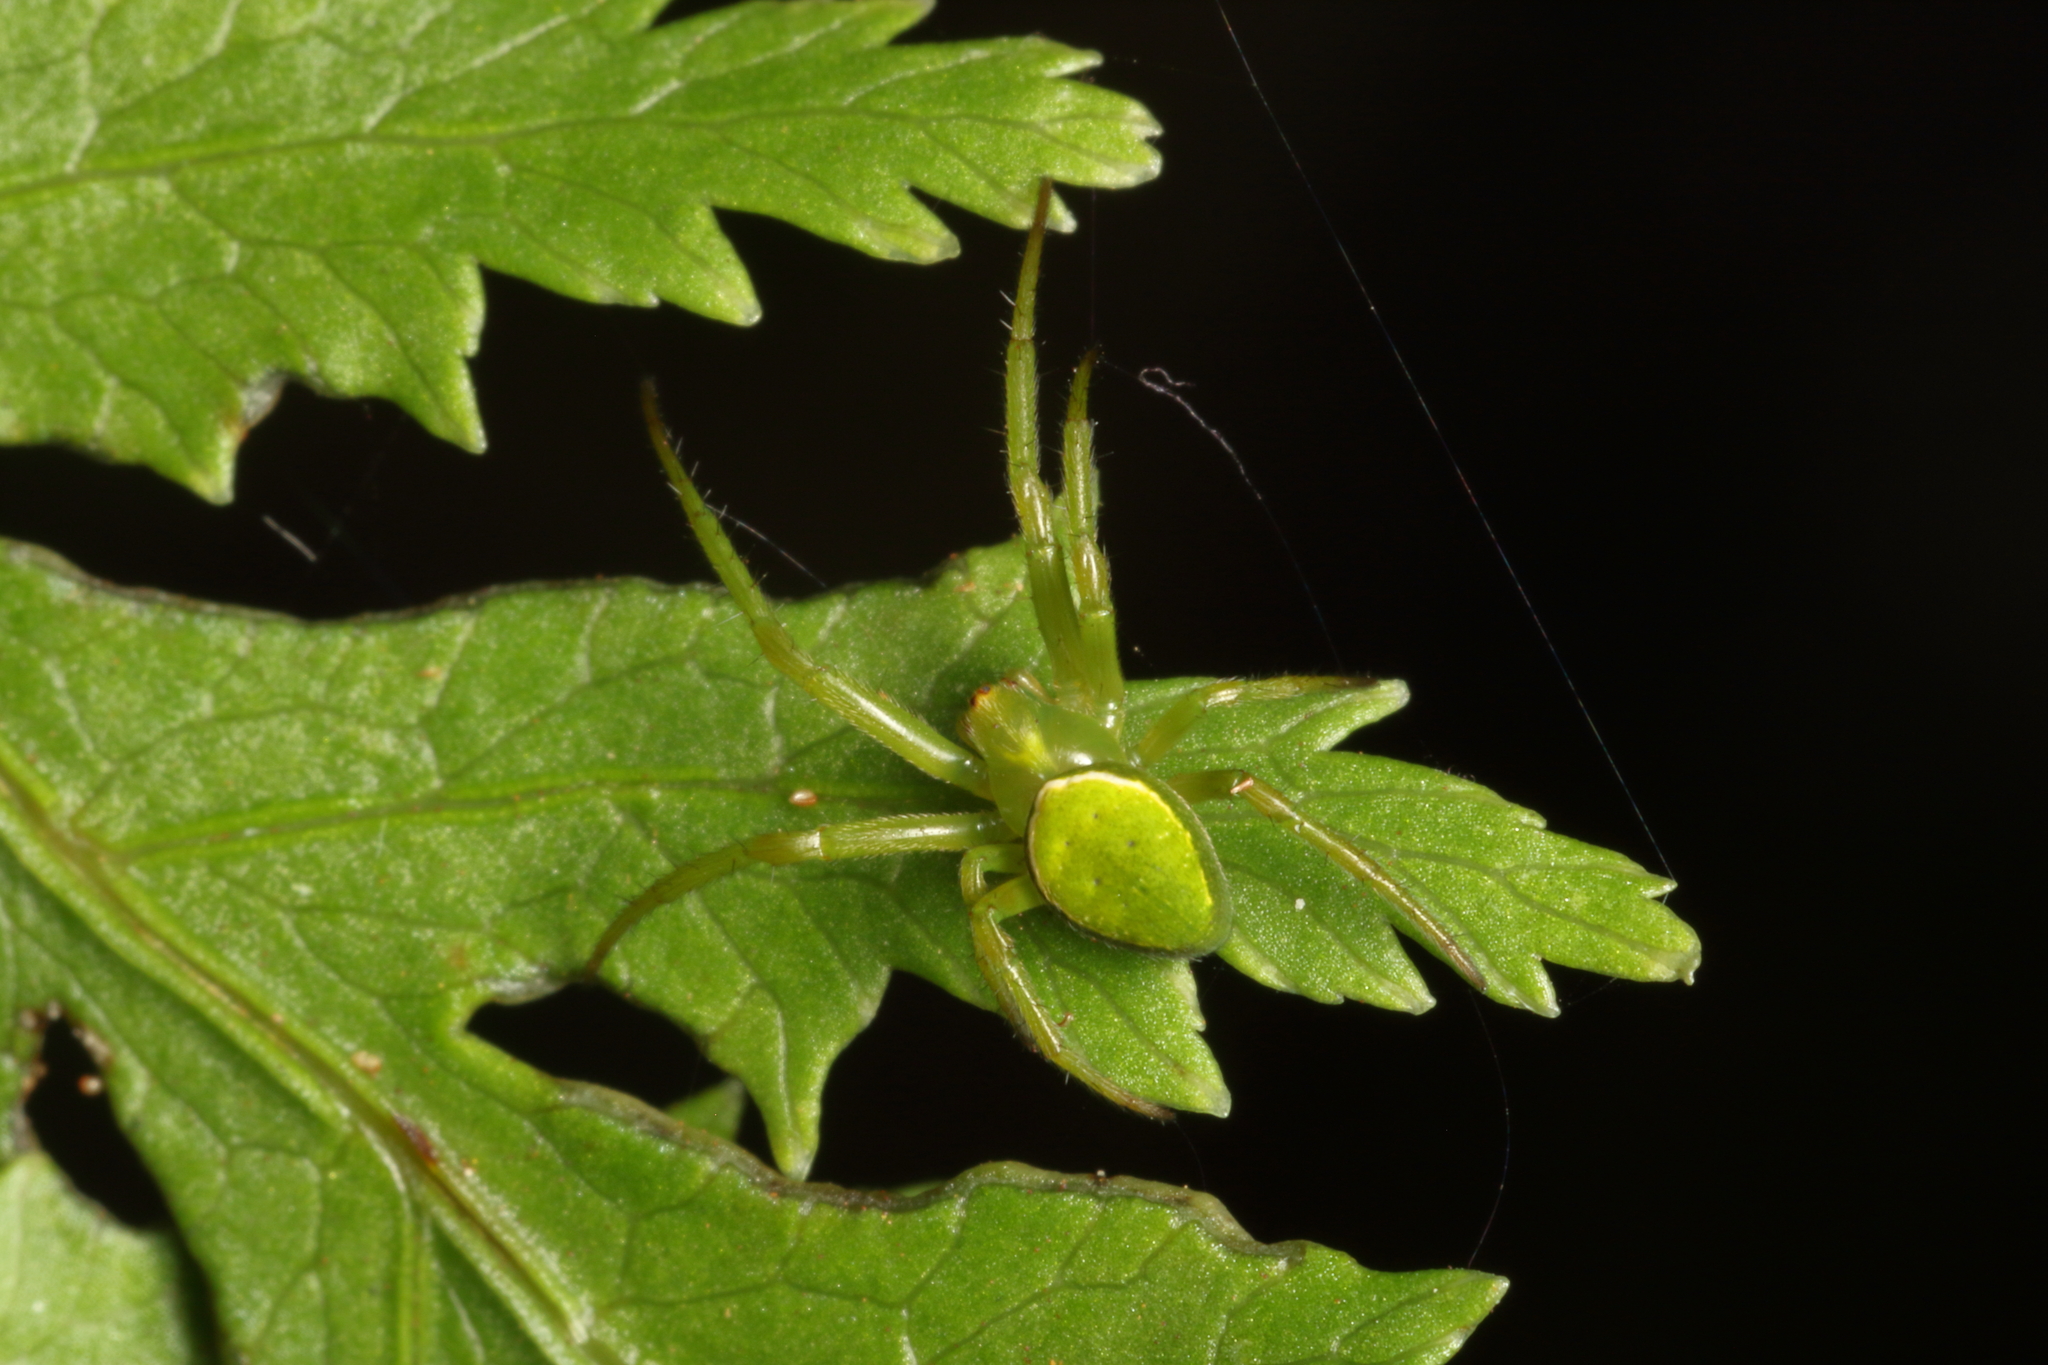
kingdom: Animalia
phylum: Arthropoda
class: Arachnida
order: Araneae
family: Araneidae
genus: Colaranea
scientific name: Colaranea viriditas
